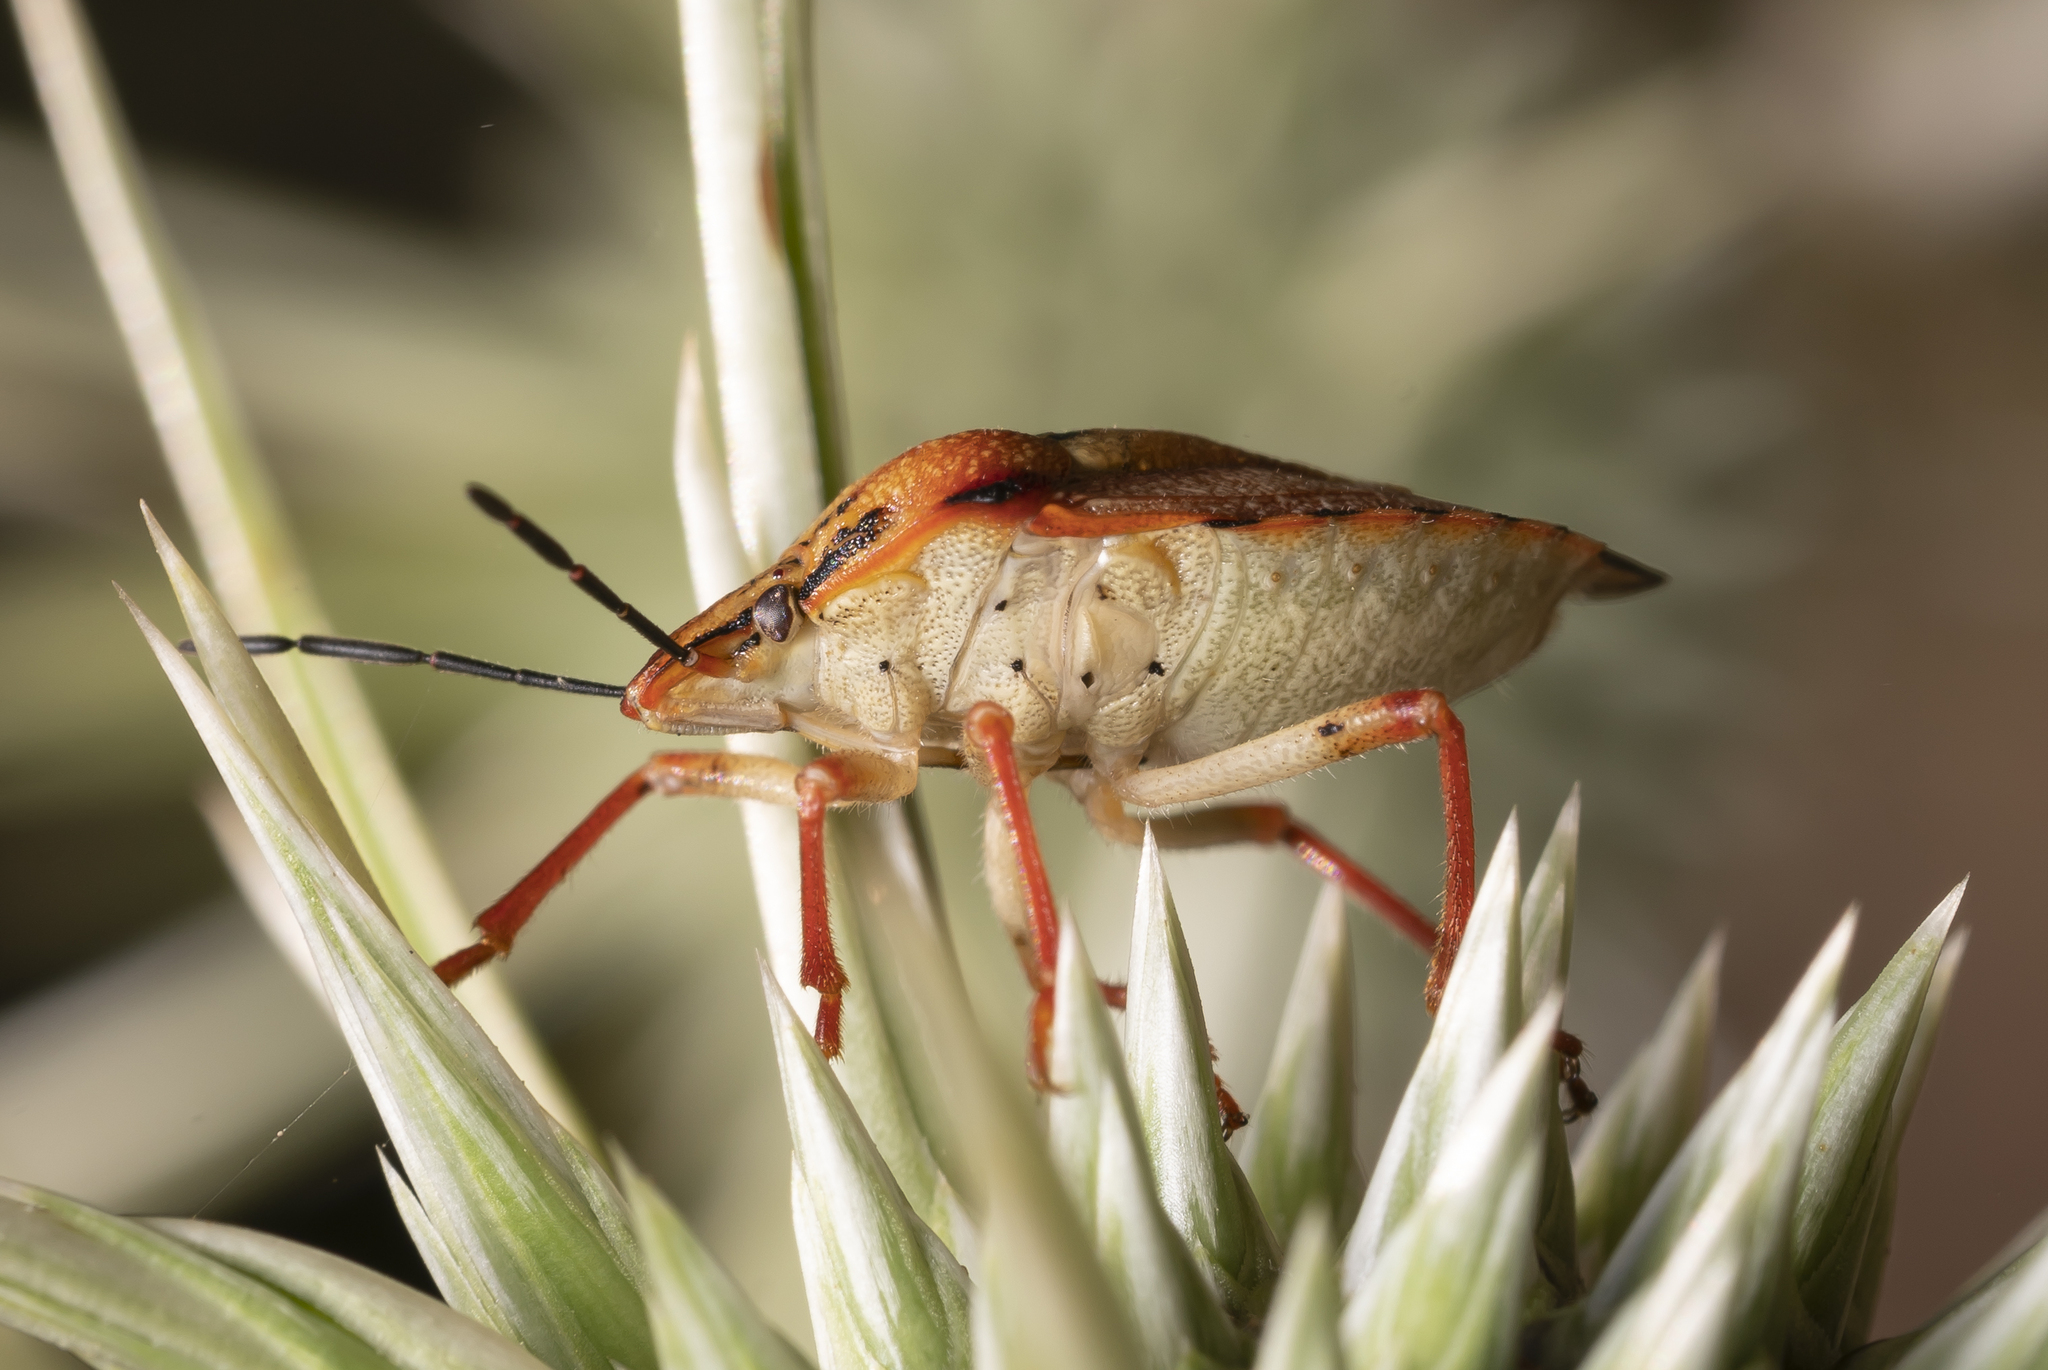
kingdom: Animalia
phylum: Arthropoda
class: Insecta
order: Hemiptera
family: Pentatomidae
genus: Carpocoris
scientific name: Carpocoris mediterraneus
